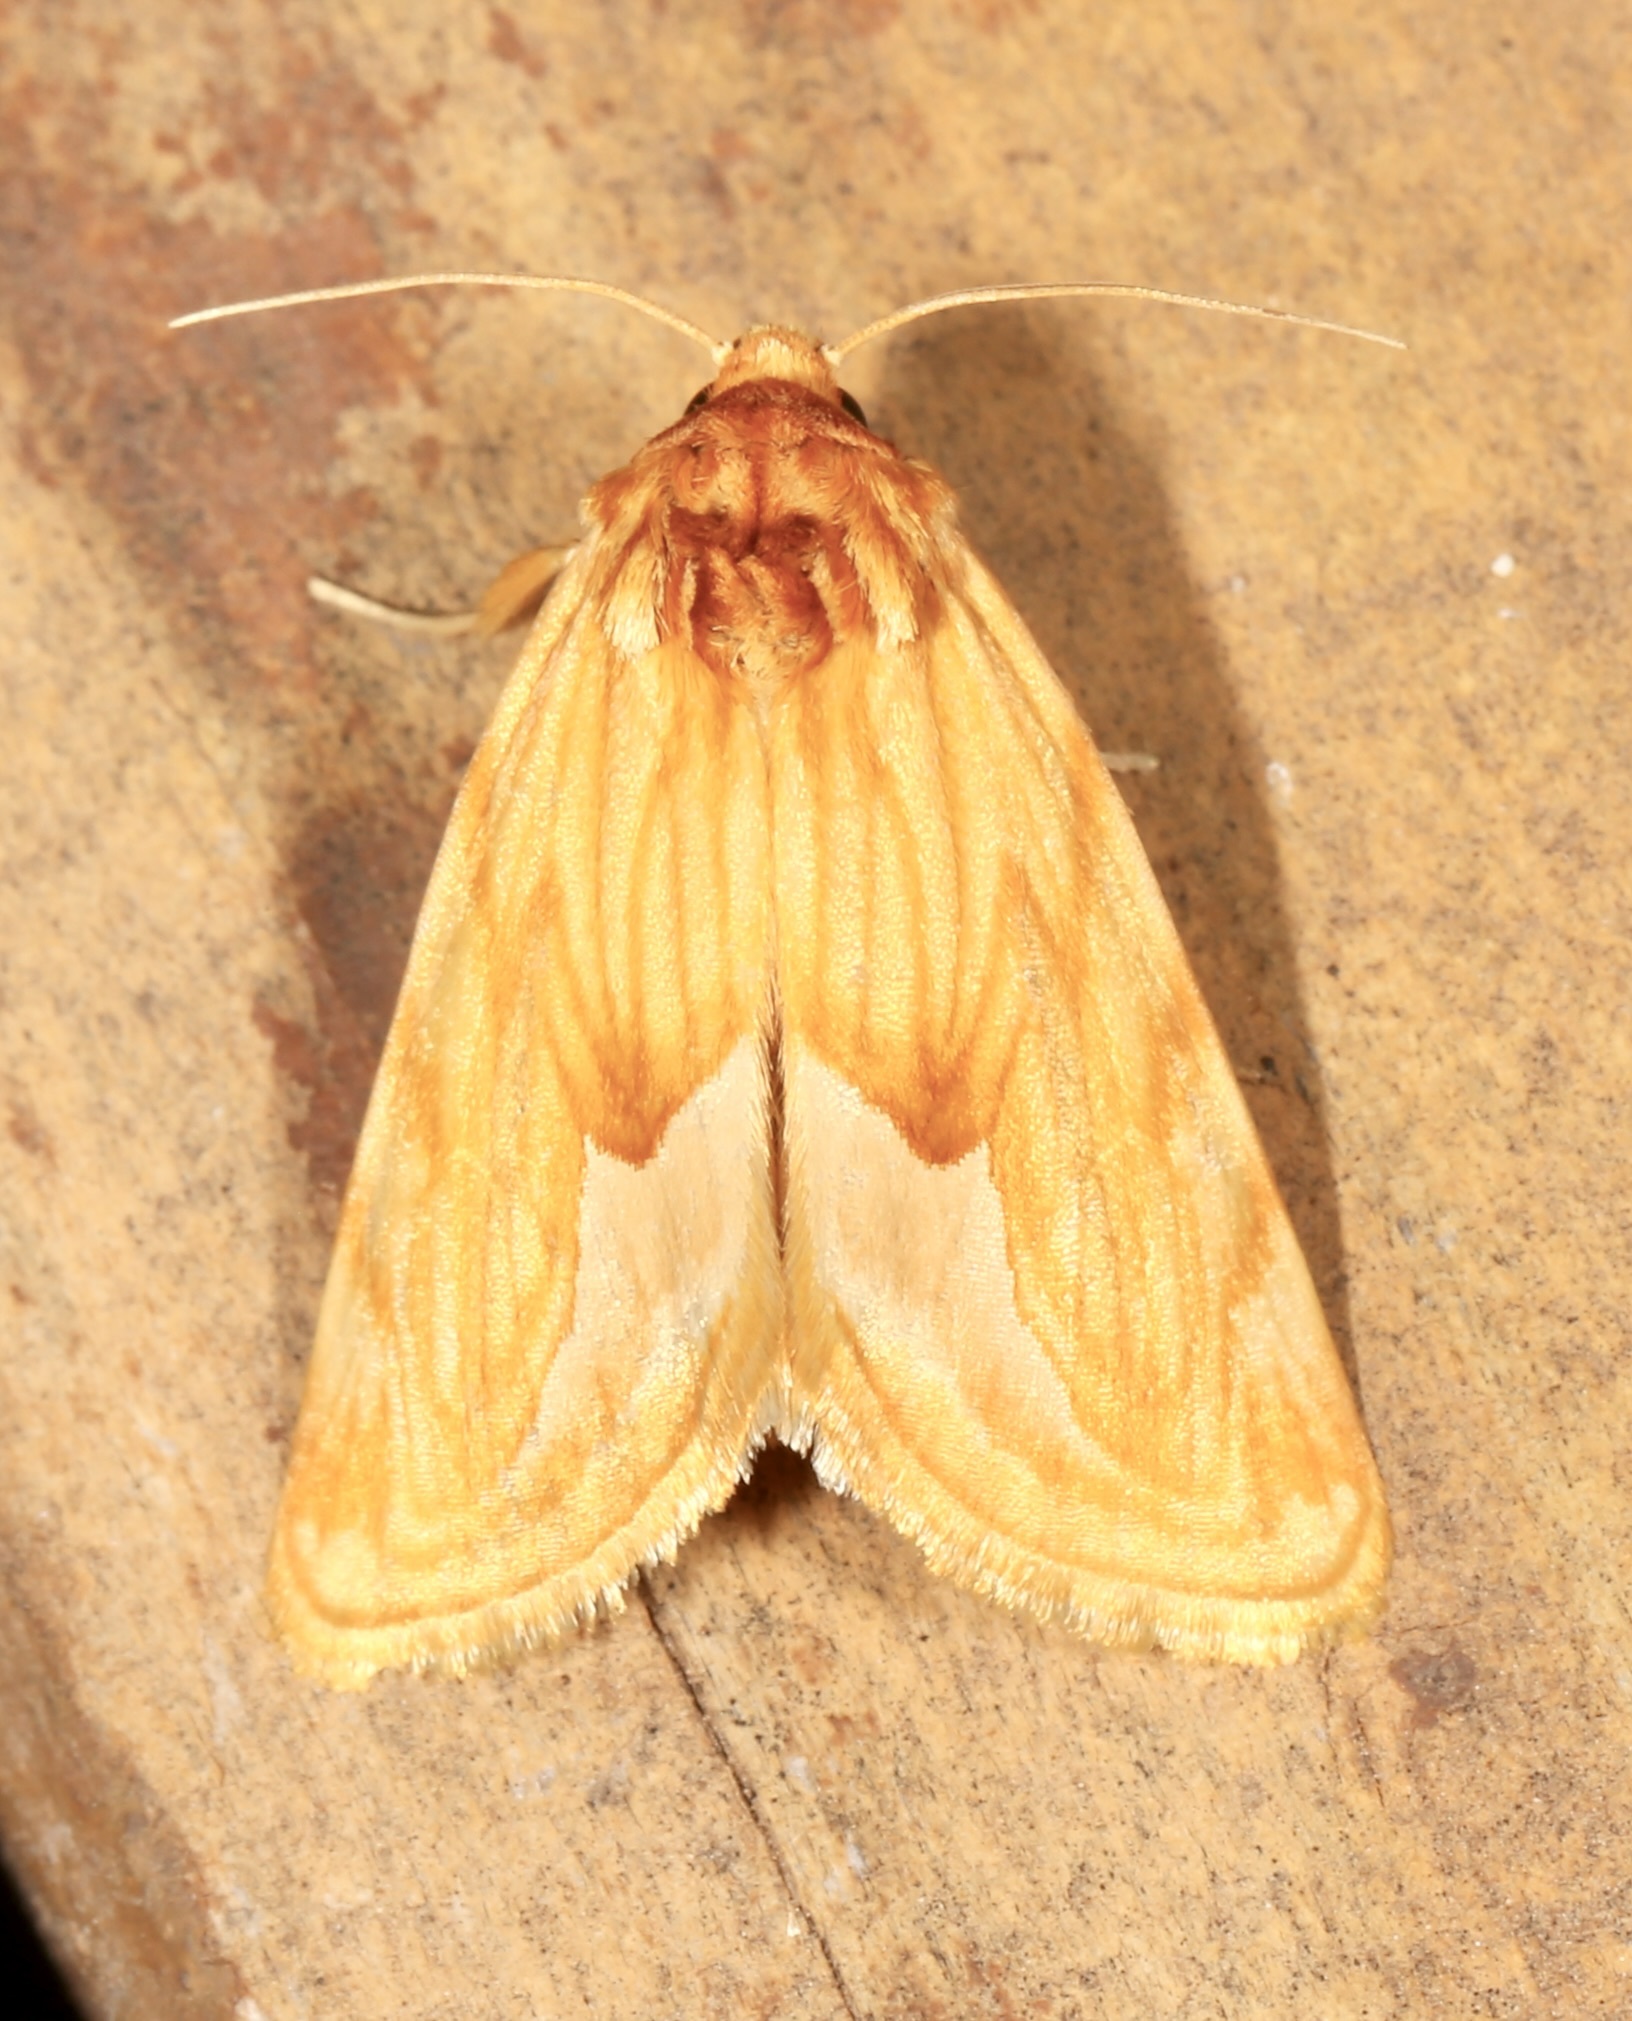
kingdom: Animalia
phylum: Arthropoda
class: Insecta
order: Lepidoptera
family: Noctuidae
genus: Cirrhophanus
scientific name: Cirrhophanus dyari
